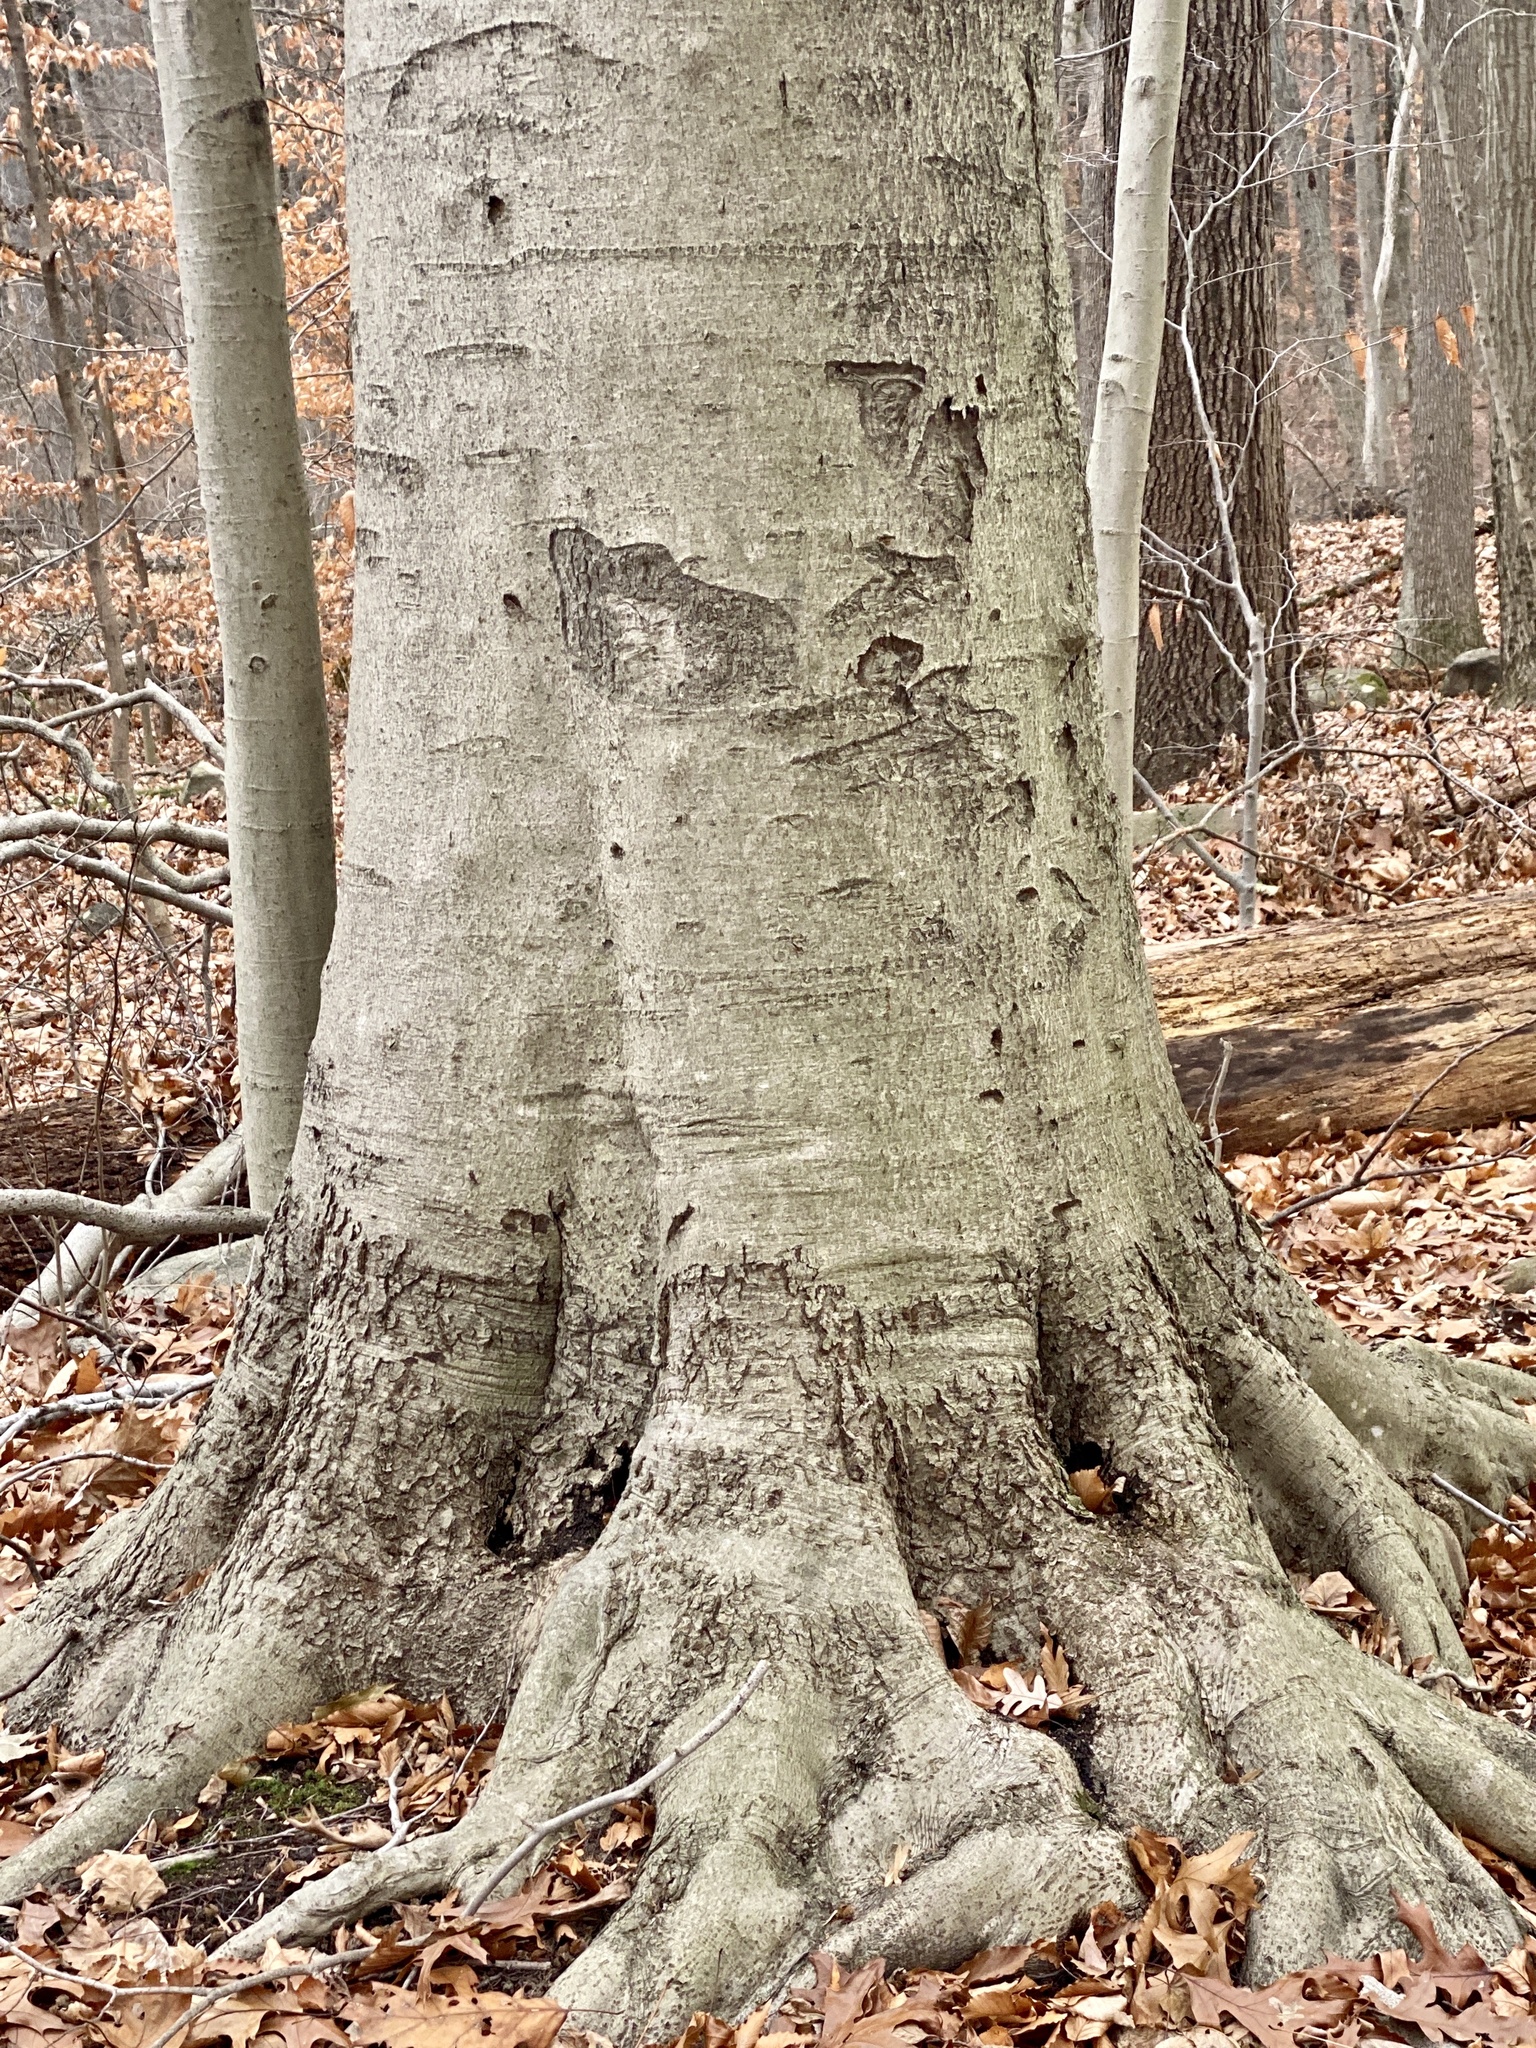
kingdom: Plantae
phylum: Tracheophyta
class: Magnoliopsida
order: Fagales
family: Fagaceae
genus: Fagus
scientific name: Fagus grandifolia
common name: American beech
